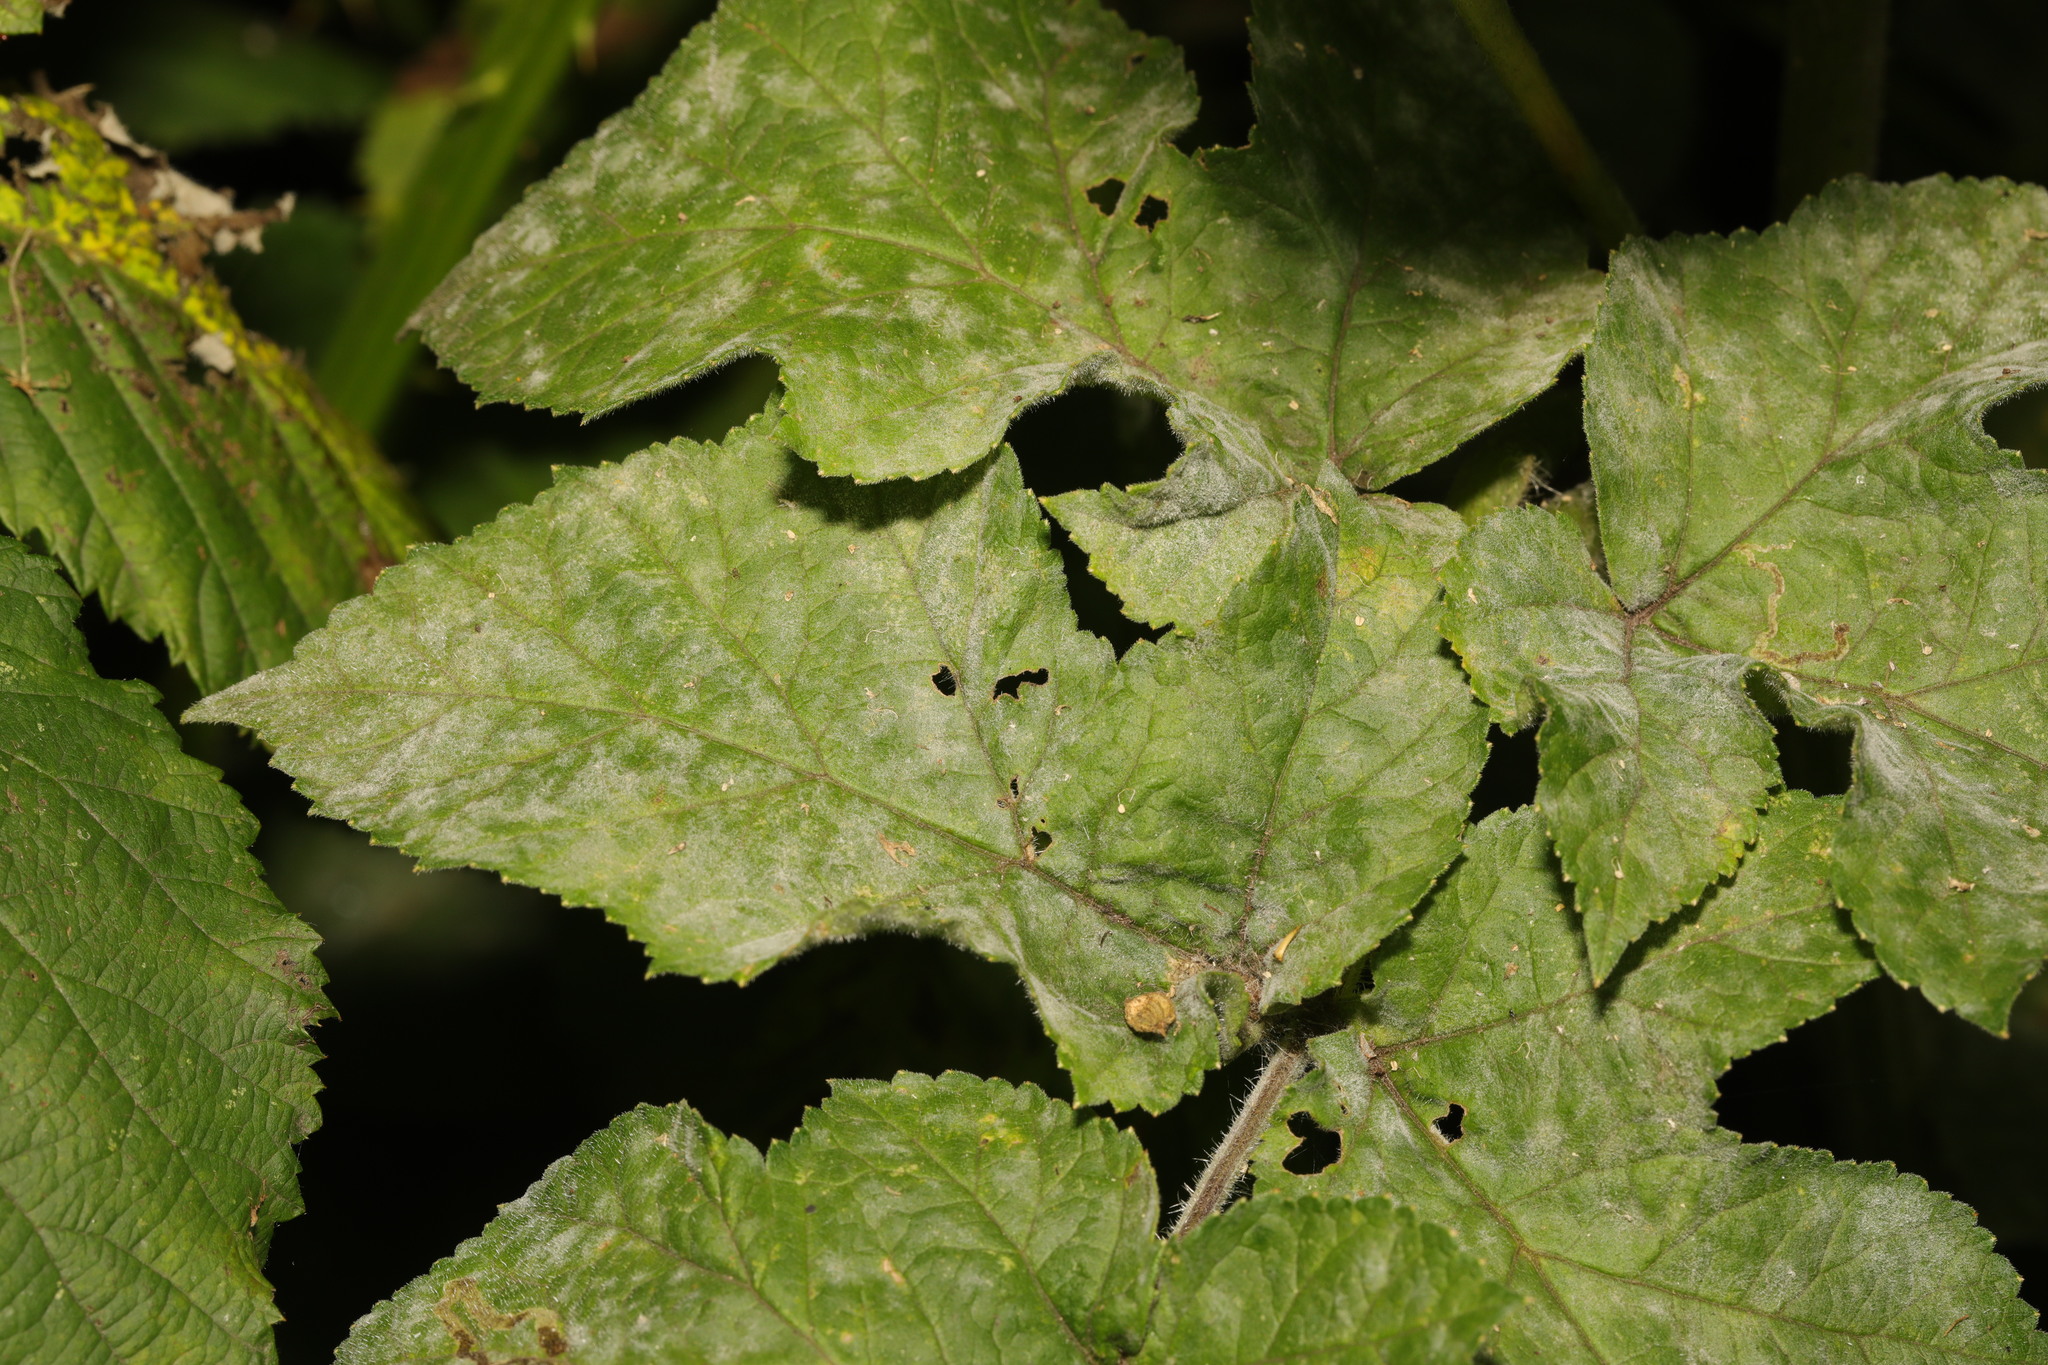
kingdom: Fungi
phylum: Ascomycota
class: Leotiomycetes
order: Helotiales
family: Erysiphaceae
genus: Erysiphe
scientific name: Erysiphe heraclei
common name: Umbellifer mildew
